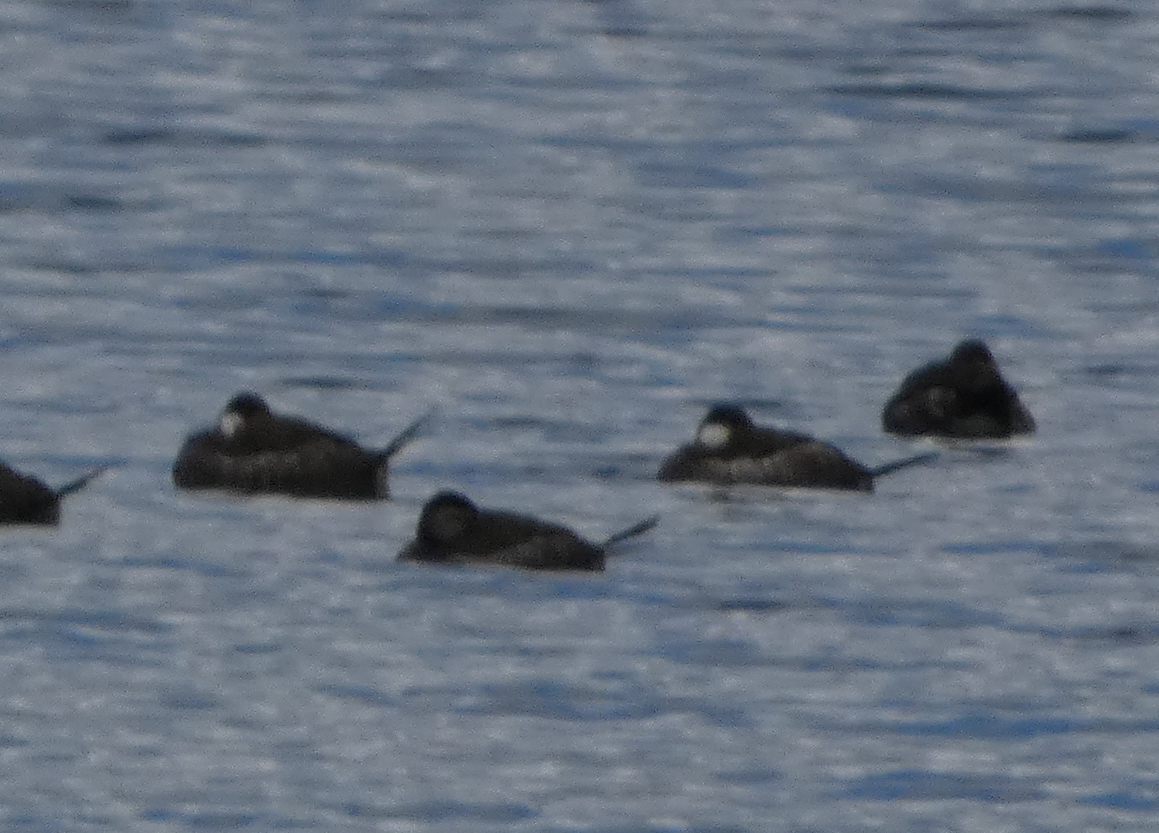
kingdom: Animalia
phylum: Chordata
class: Aves
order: Anseriformes
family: Anatidae
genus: Oxyura
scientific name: Oxyura jamaicensis
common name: Ruddy duck
